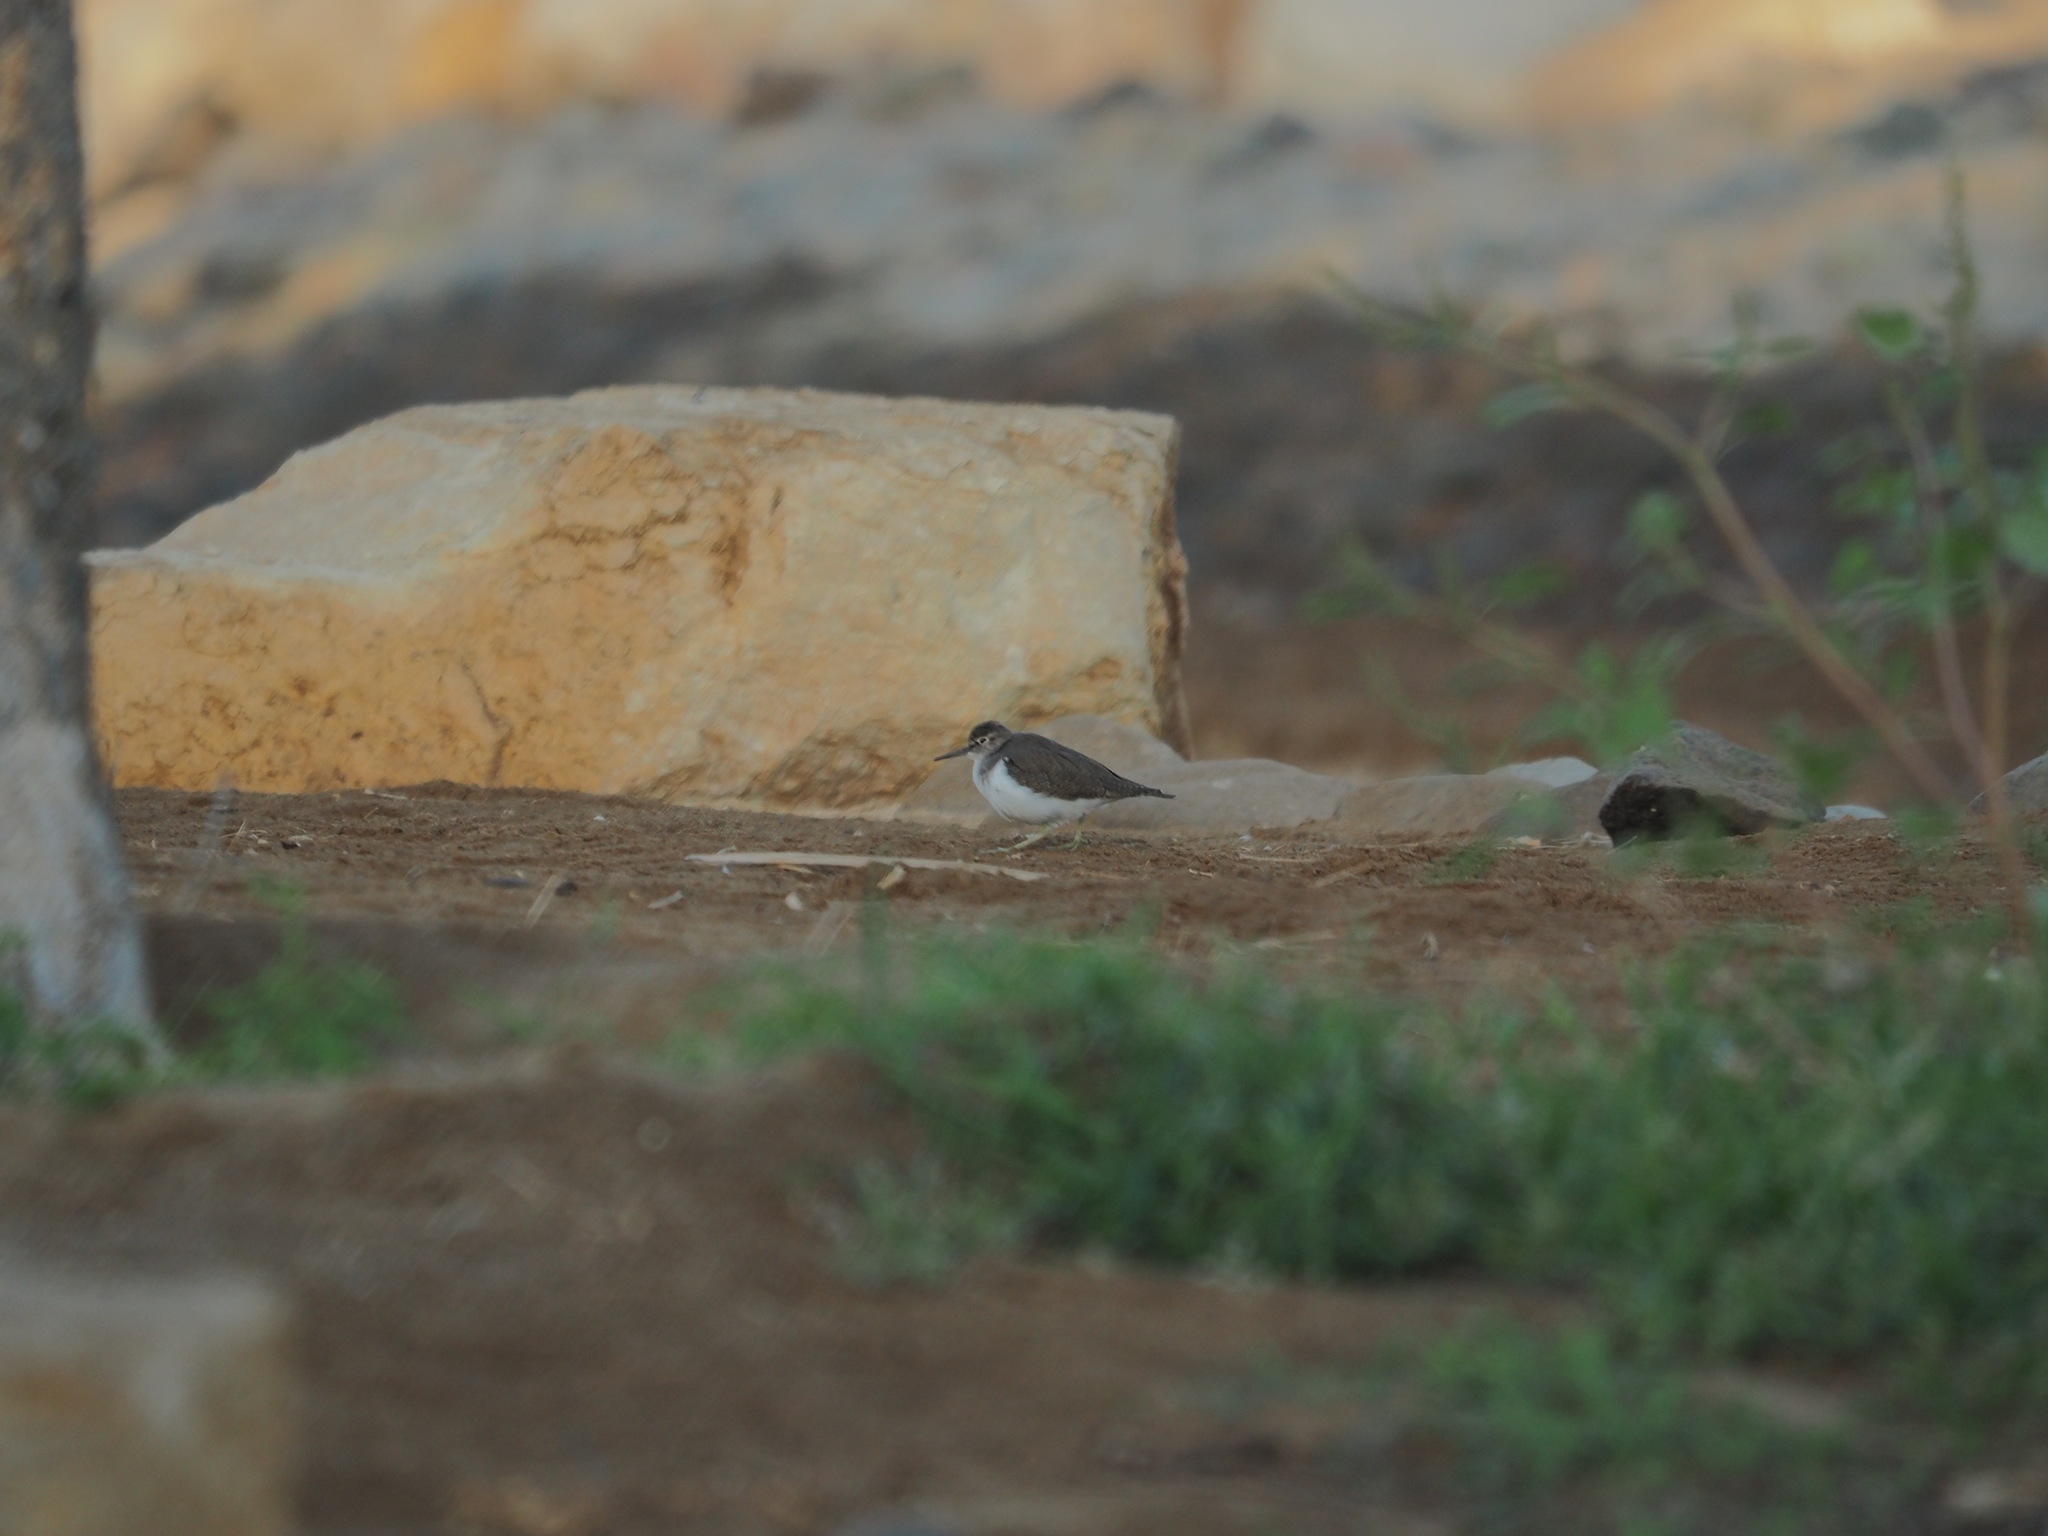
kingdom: Animalia
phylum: Chordata
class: Aves
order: Charadriiformes
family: Scolopacidae
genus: Actitis
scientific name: Actitis hypoleucos
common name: Common sandpiper
